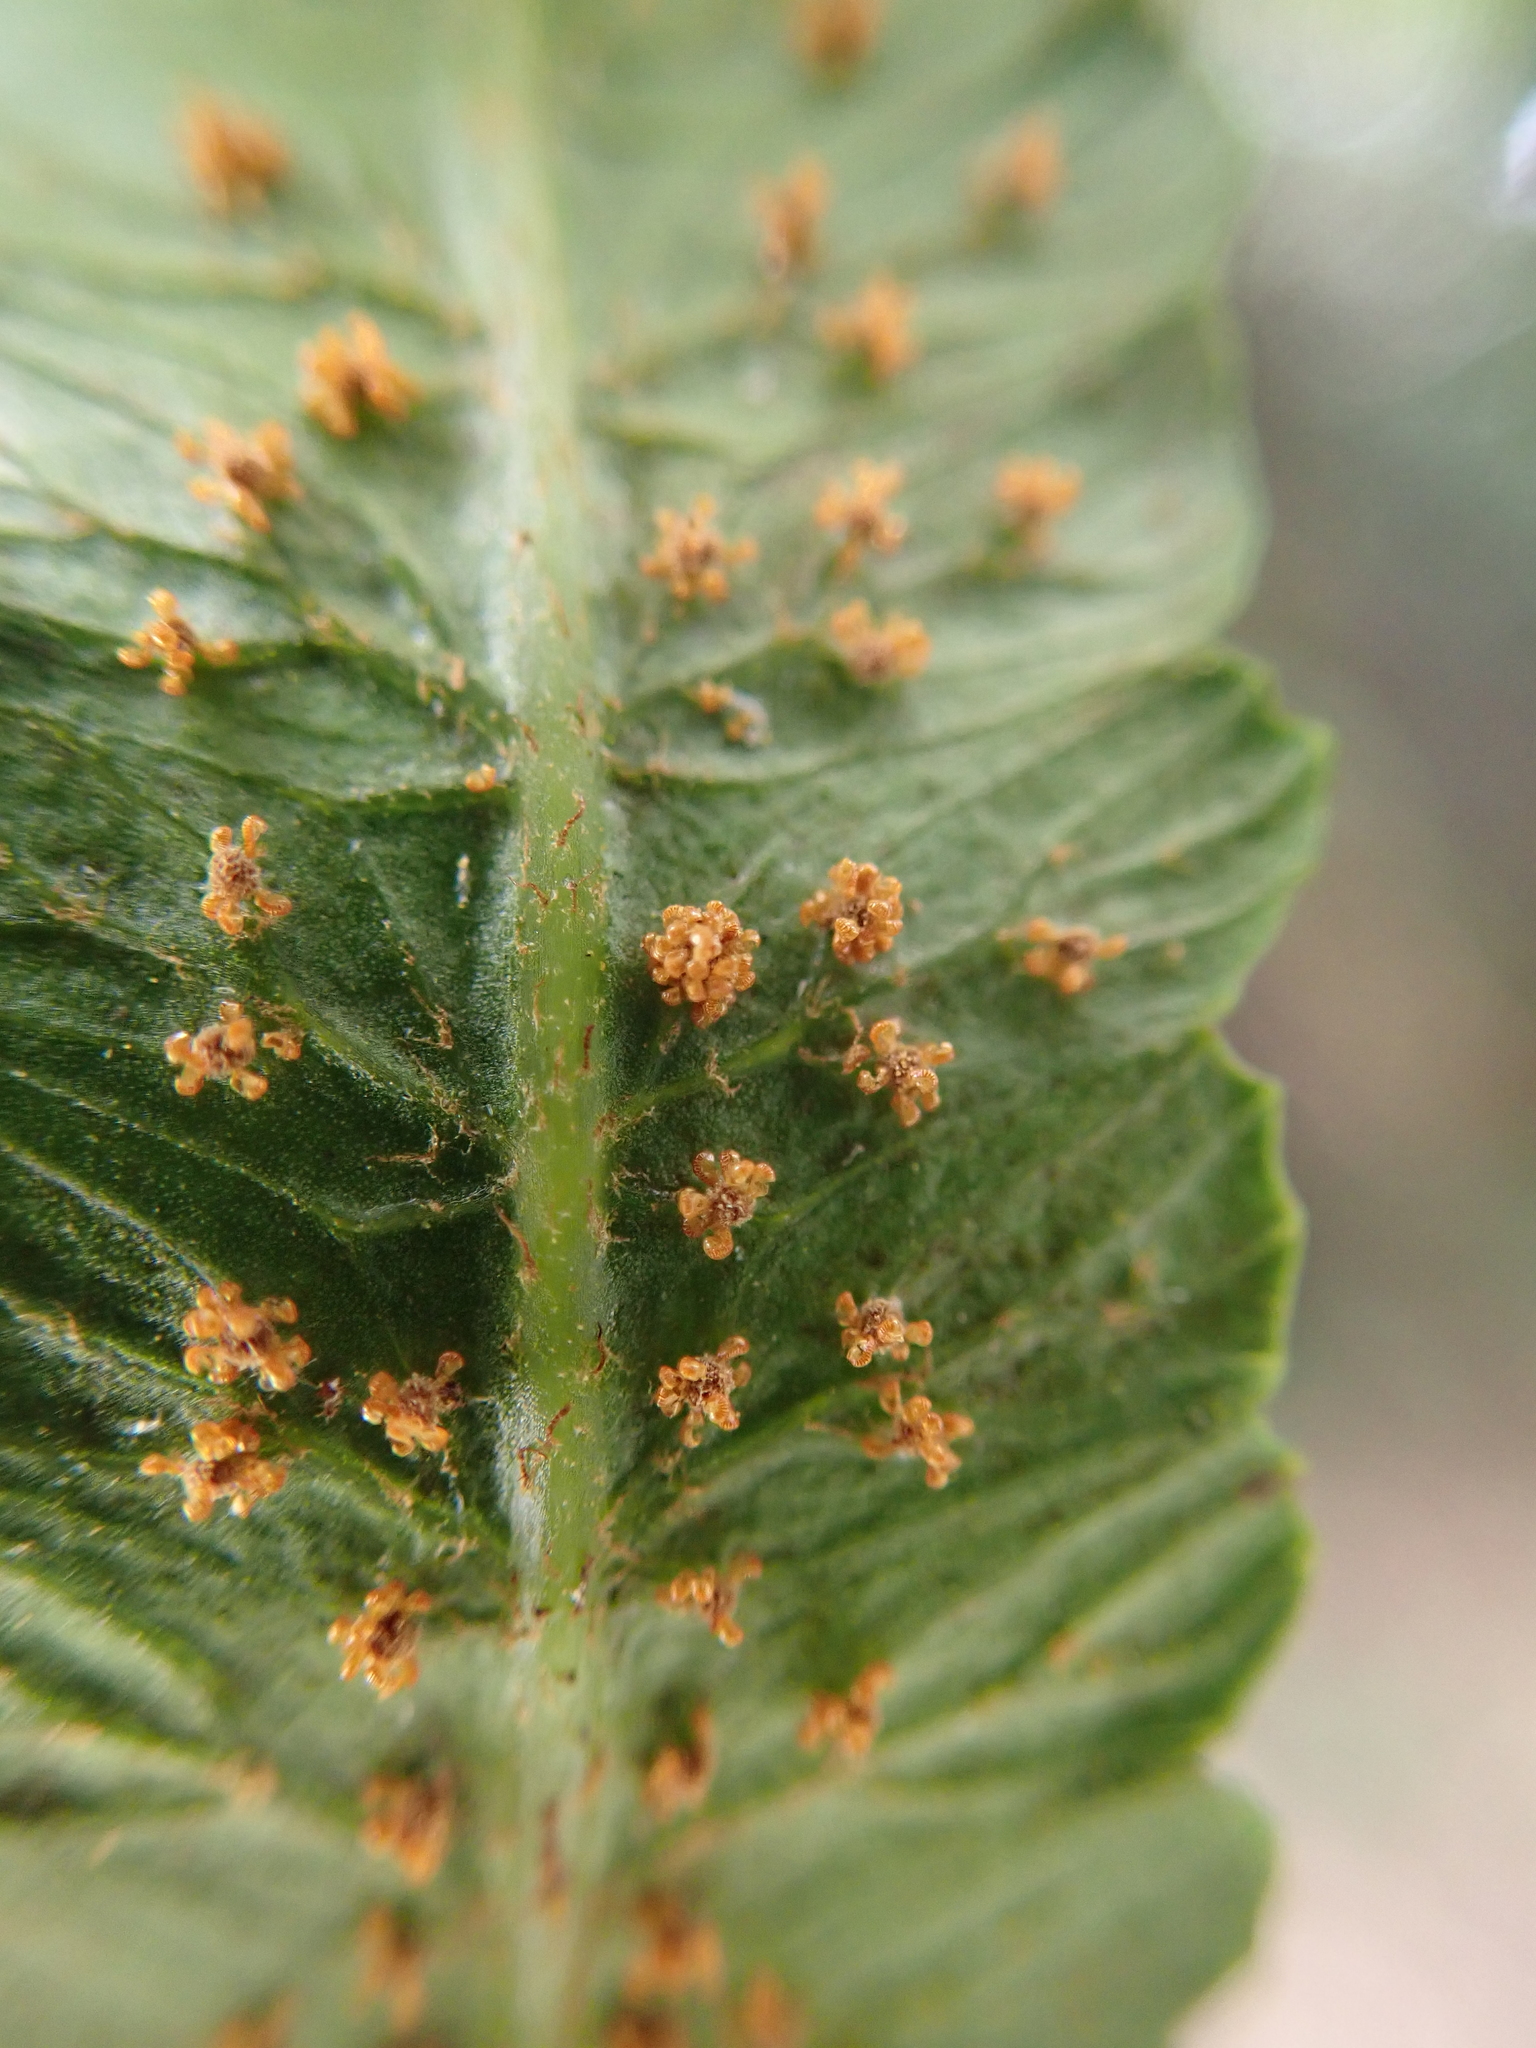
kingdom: Plantae
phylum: Tracheophyta
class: Polypodiopsida
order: Cyatheales
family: Cyatheaceae
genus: Gymnosphaera
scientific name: Gymnosphaera podophylla
